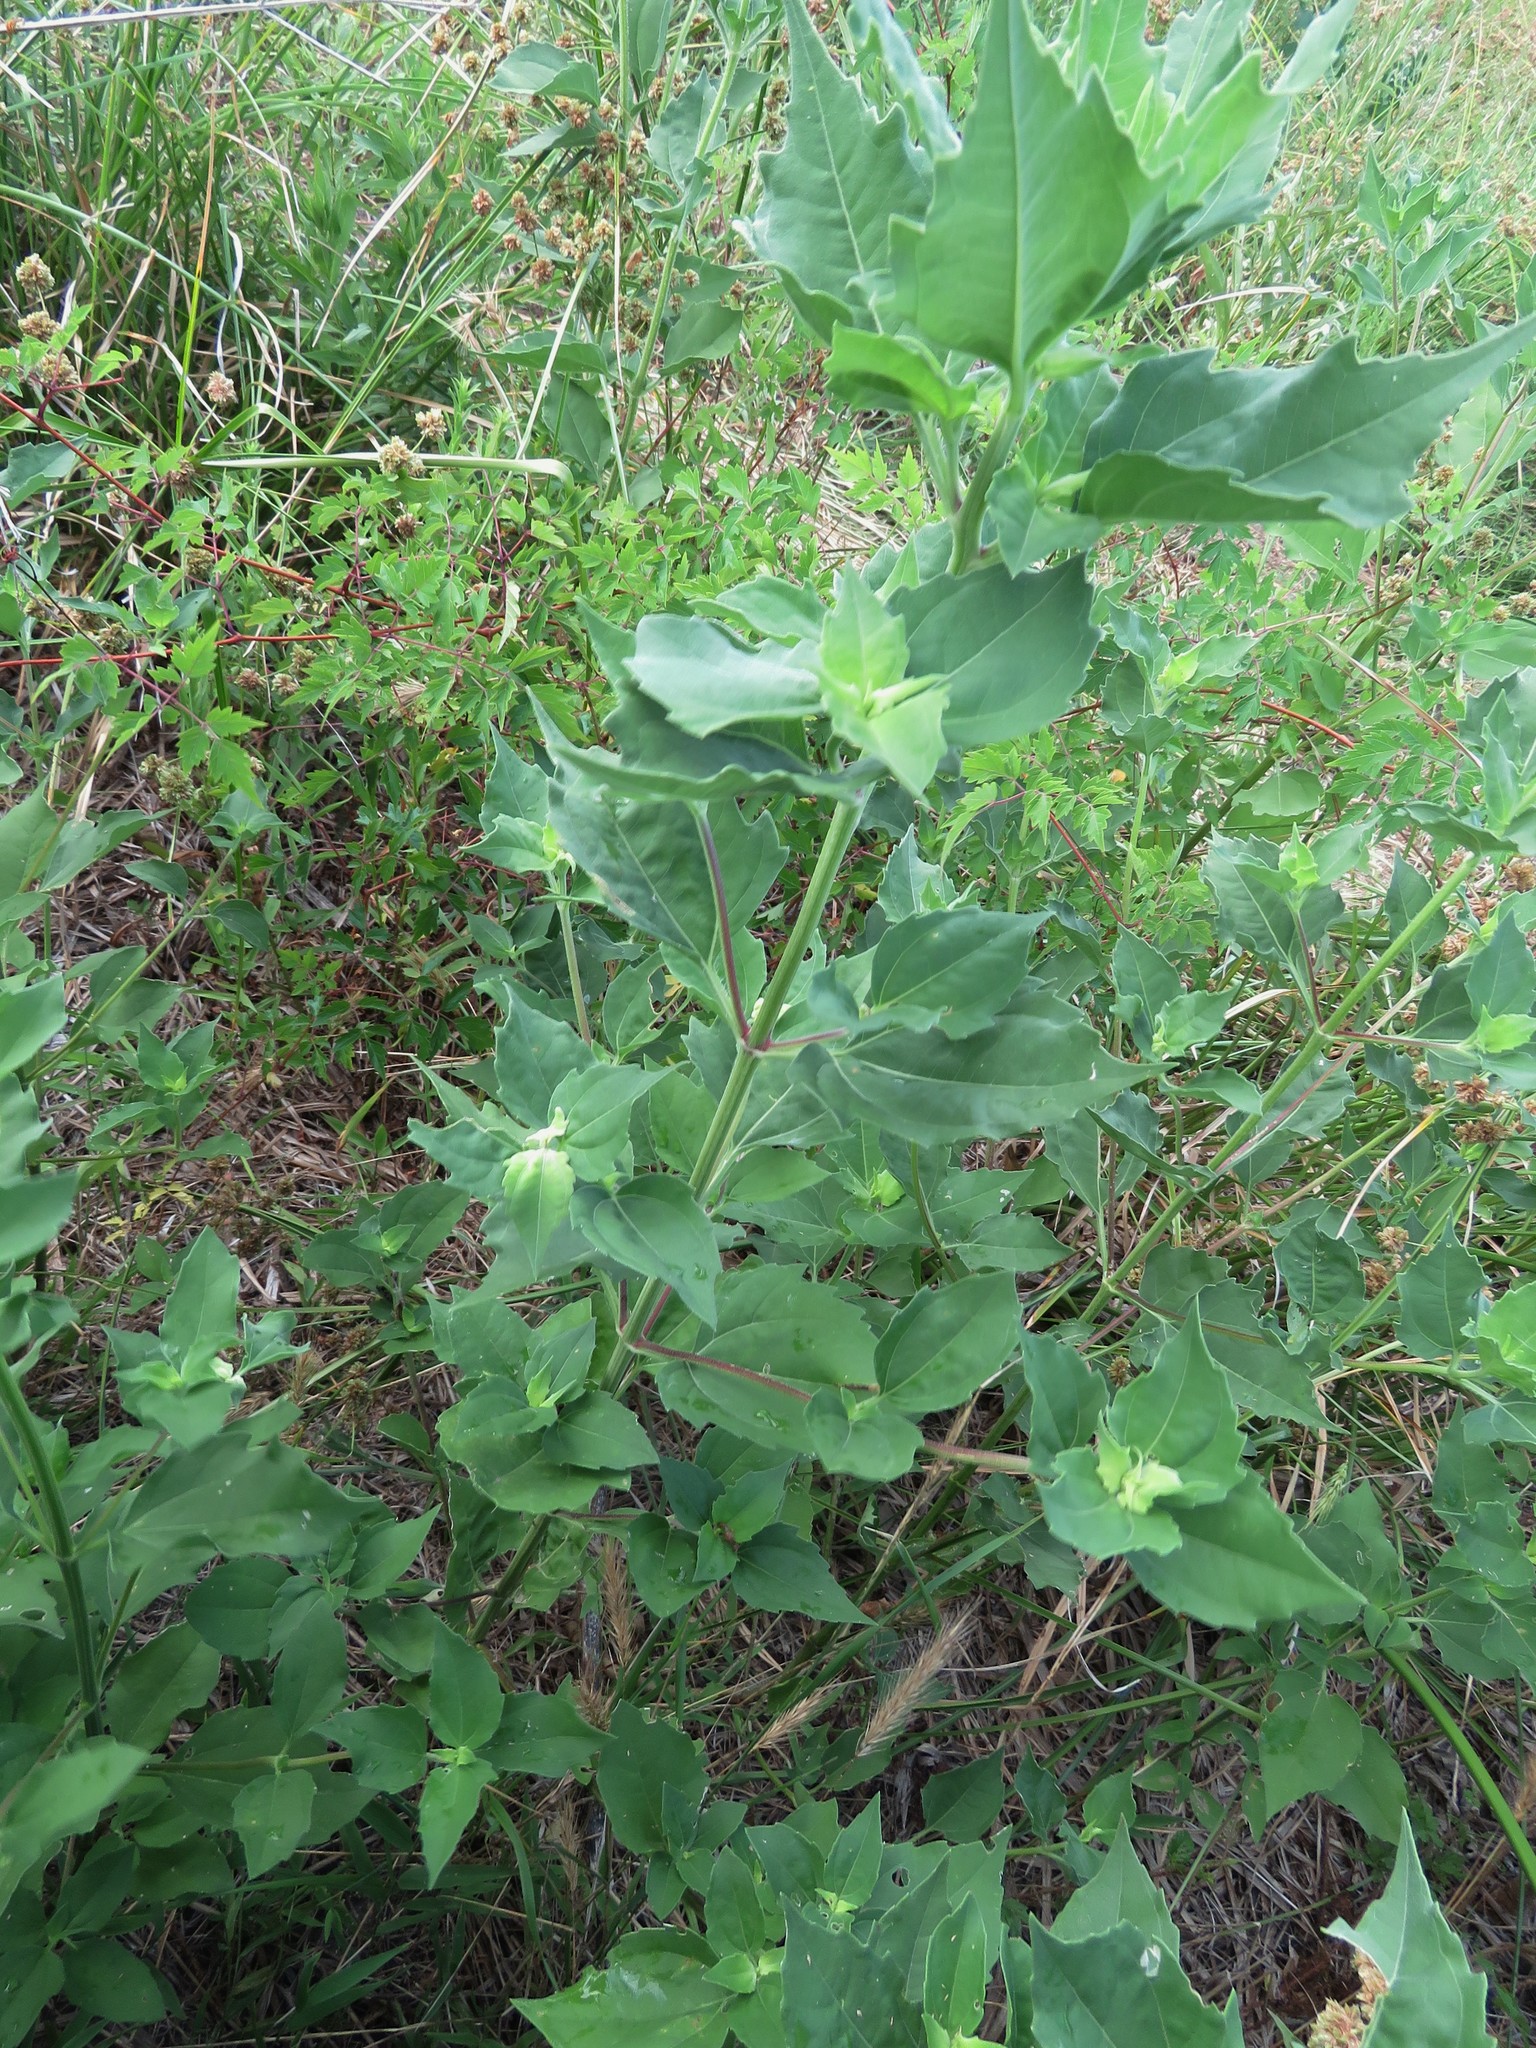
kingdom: Plantae
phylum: Tracheophyta
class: Magnoliopsida
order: Asterales
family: Asteraceae
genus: Iva
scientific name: Iva annua
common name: Marsh-elder
